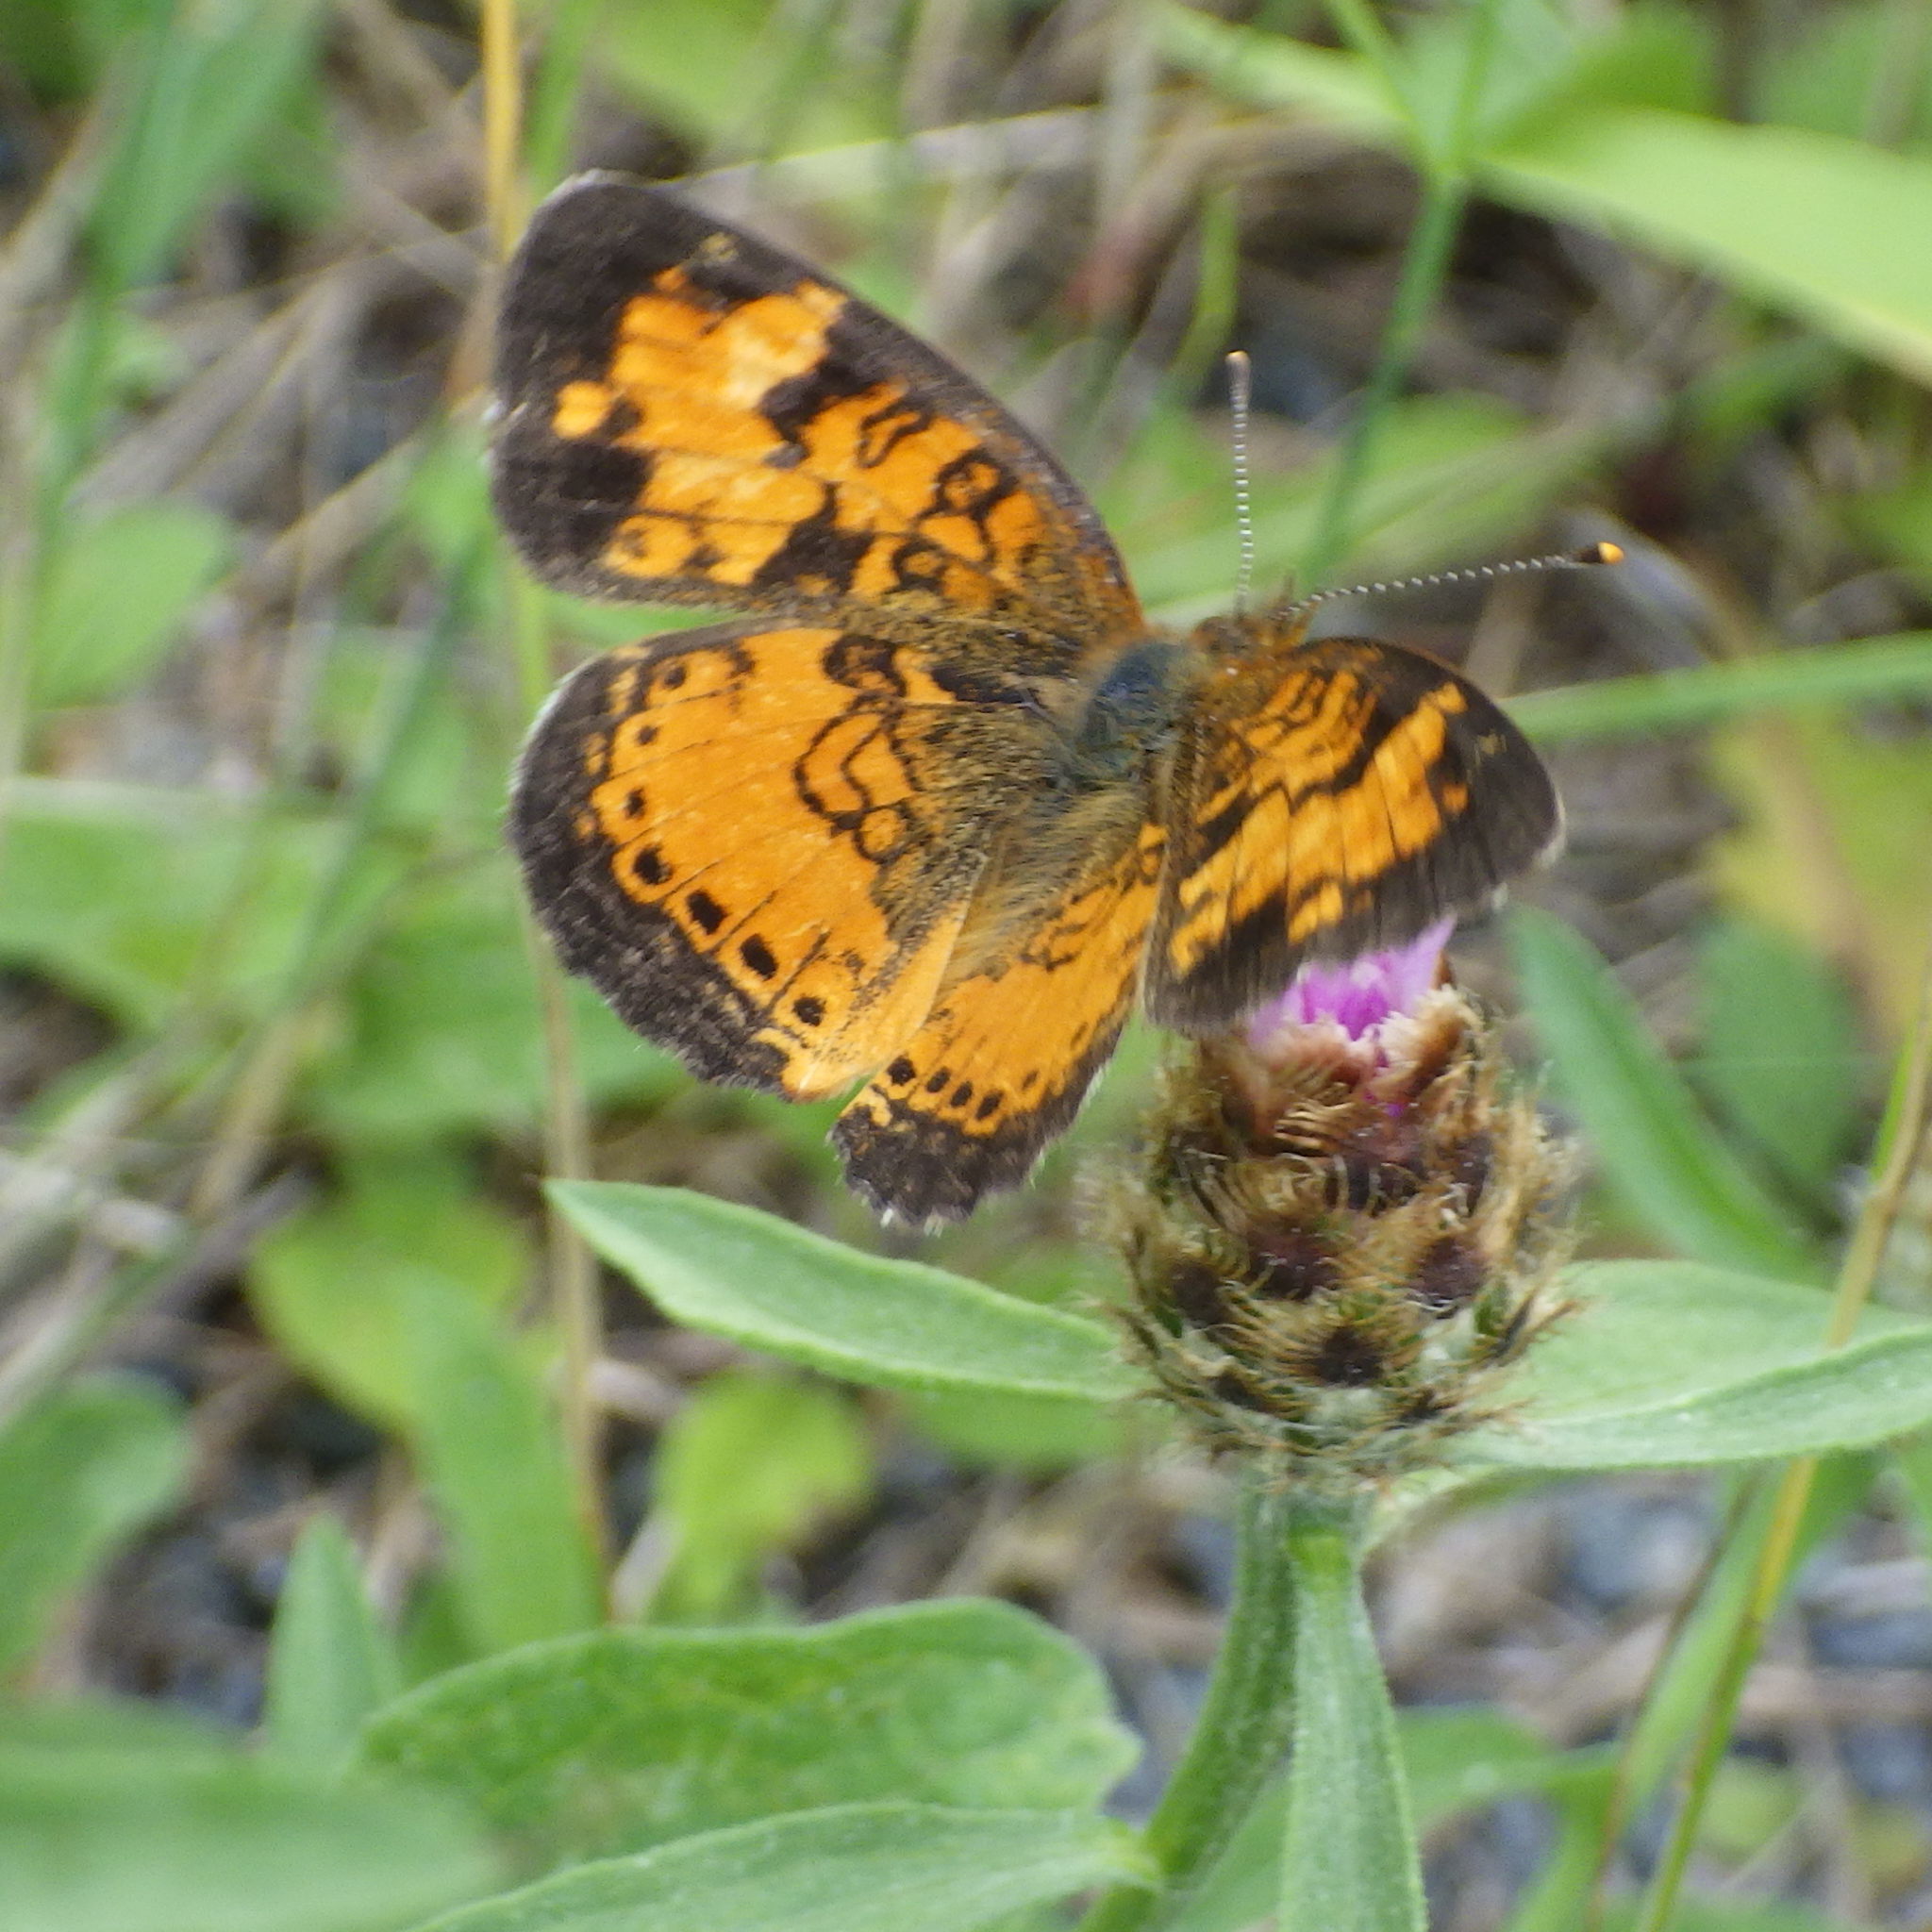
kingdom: Animalia
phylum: Arthropoda
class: Insecta
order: Lepidoptera
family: Nymphalidae
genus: Phyciodes
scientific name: Phyciodes tharos
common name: Pearl crescent
